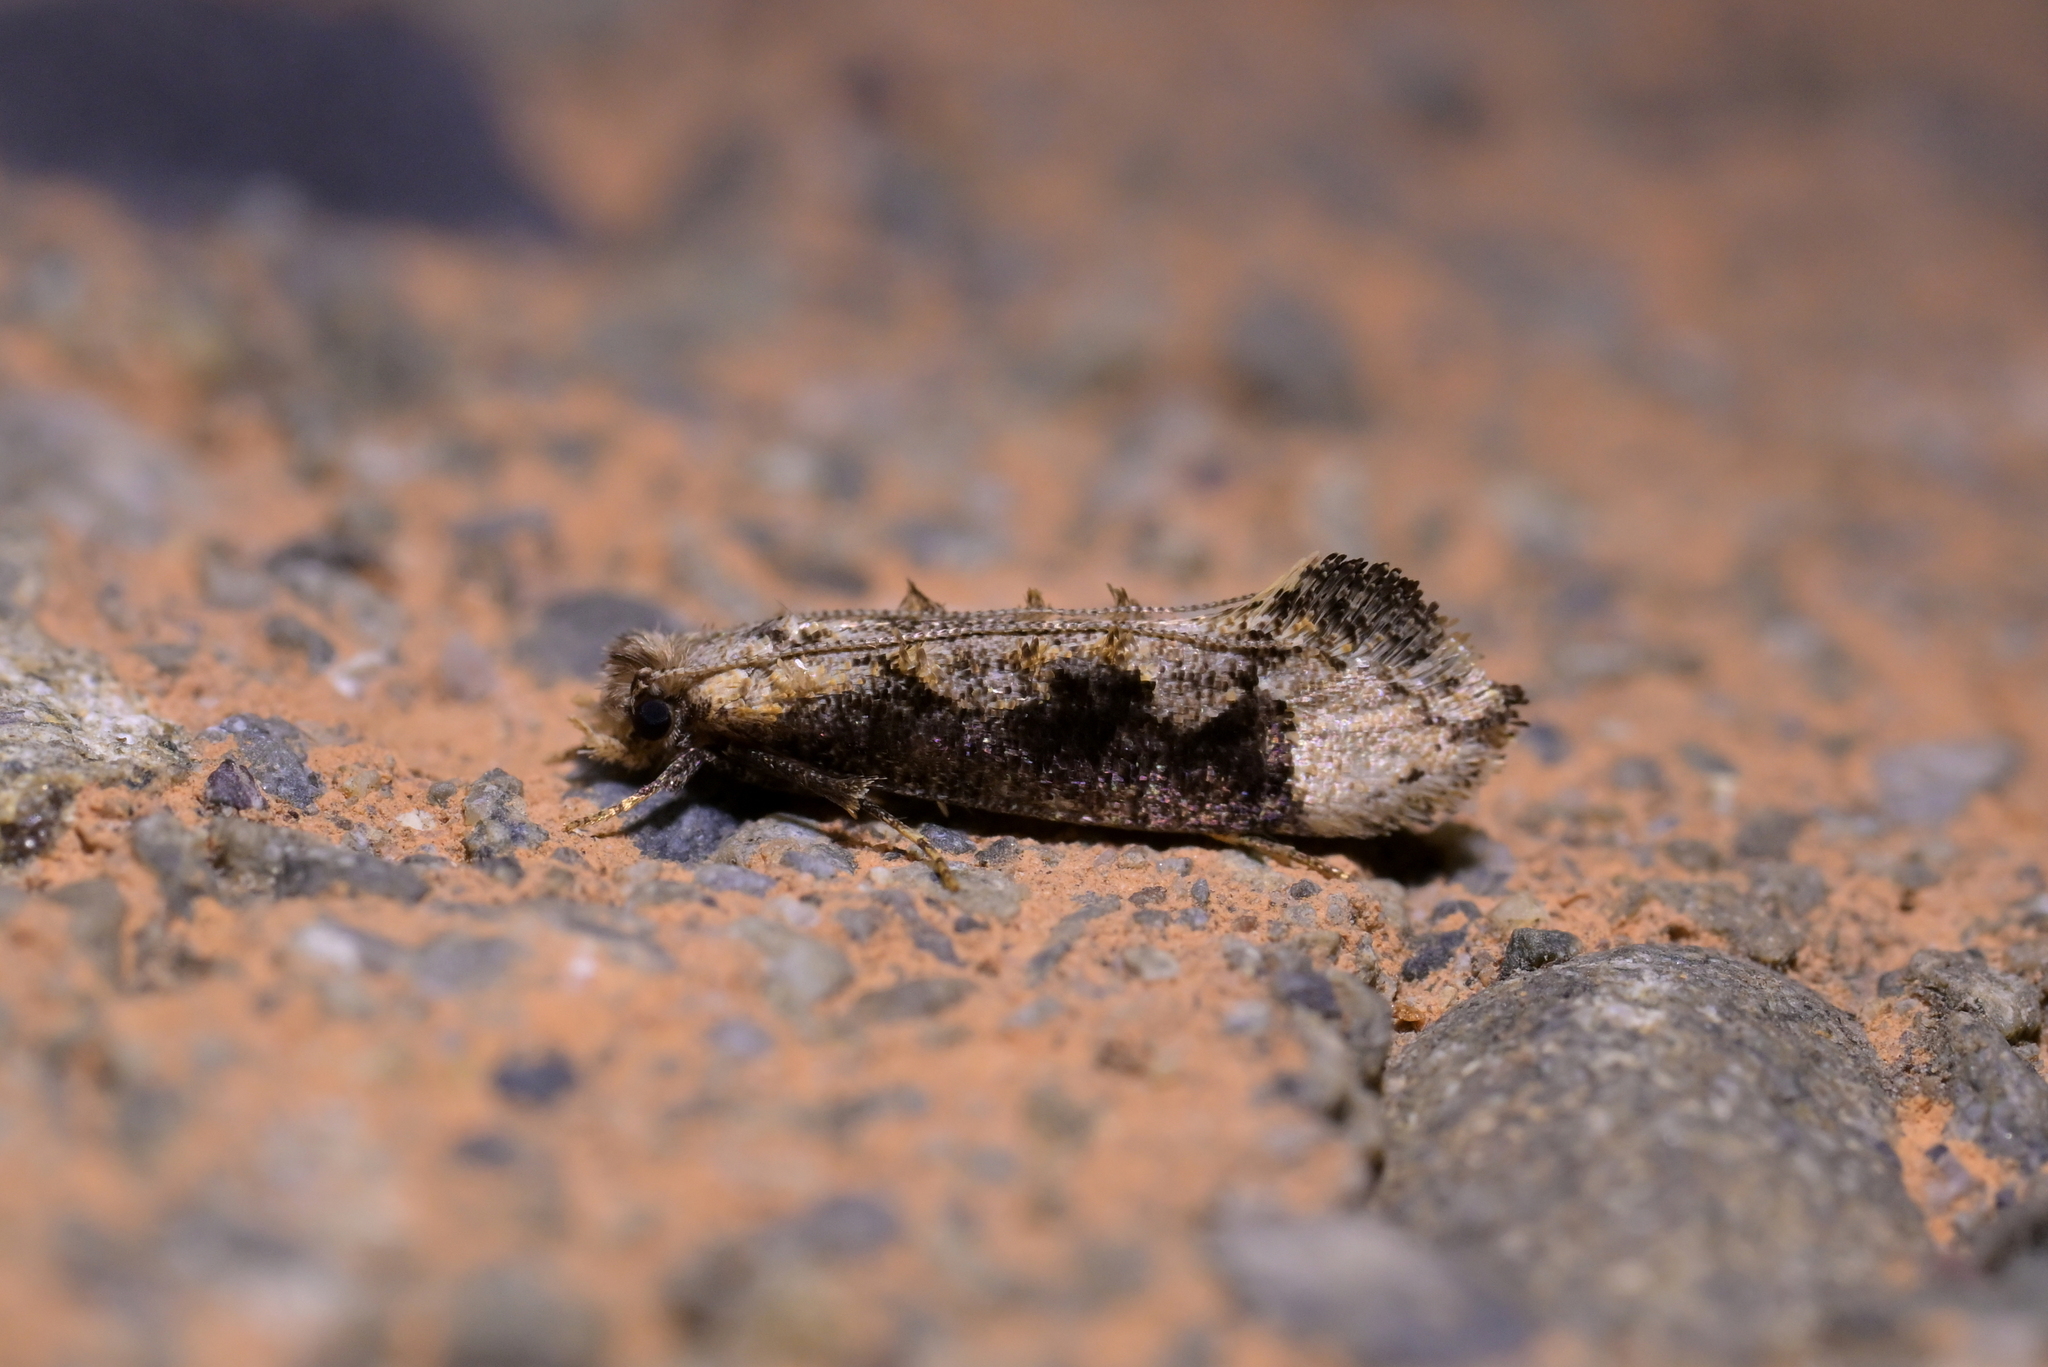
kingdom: Animalia
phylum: Arthropoda
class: Insecta
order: Lepidoptera
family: Tineidae
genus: Trithamnora
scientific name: Trithamnora certella
